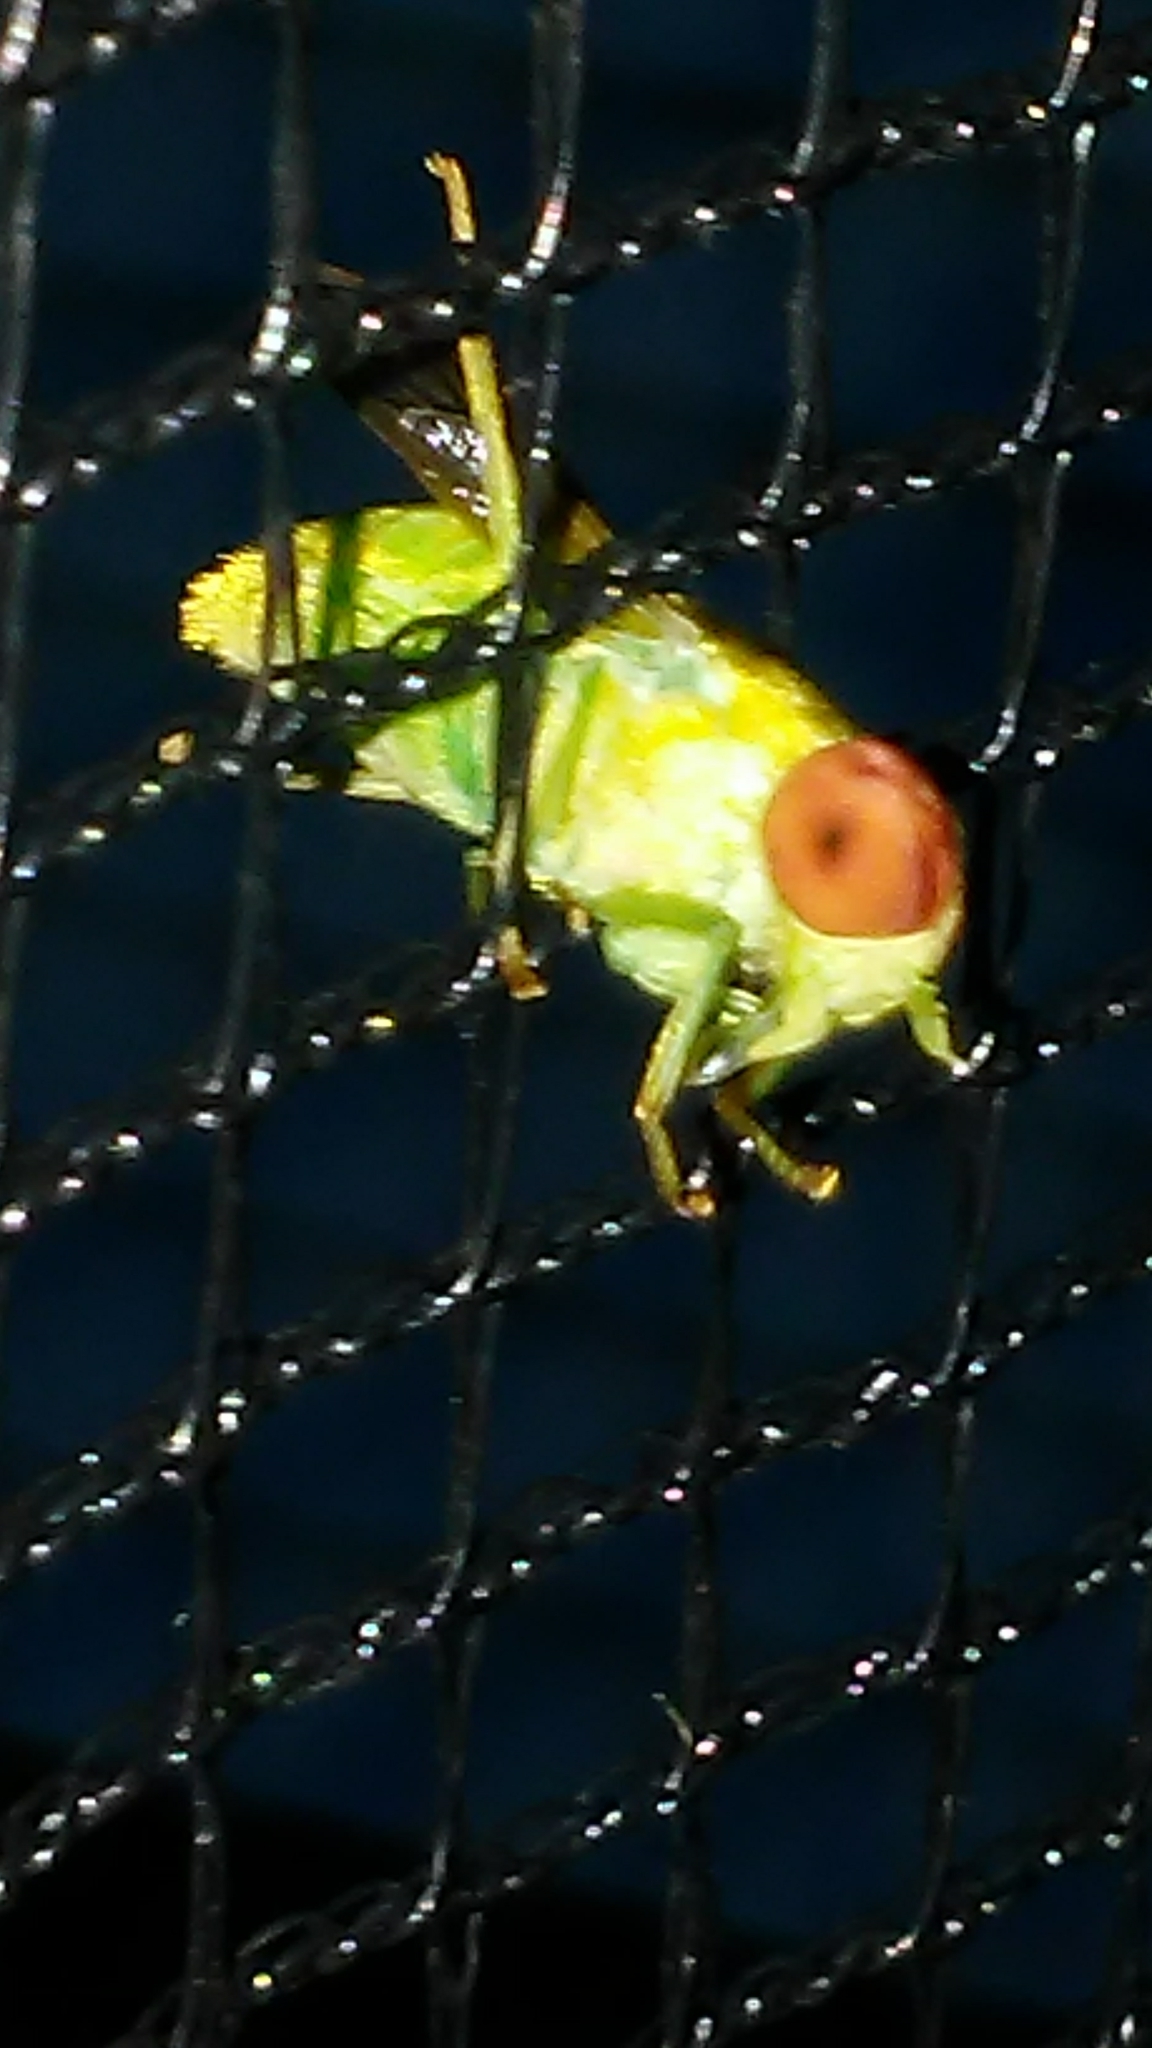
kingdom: Animalia
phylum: Arthropoda
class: Insecta
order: Diptera
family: Tabanidae
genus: Chlorotabanus
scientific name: Chlorotabanus crepuscularis
